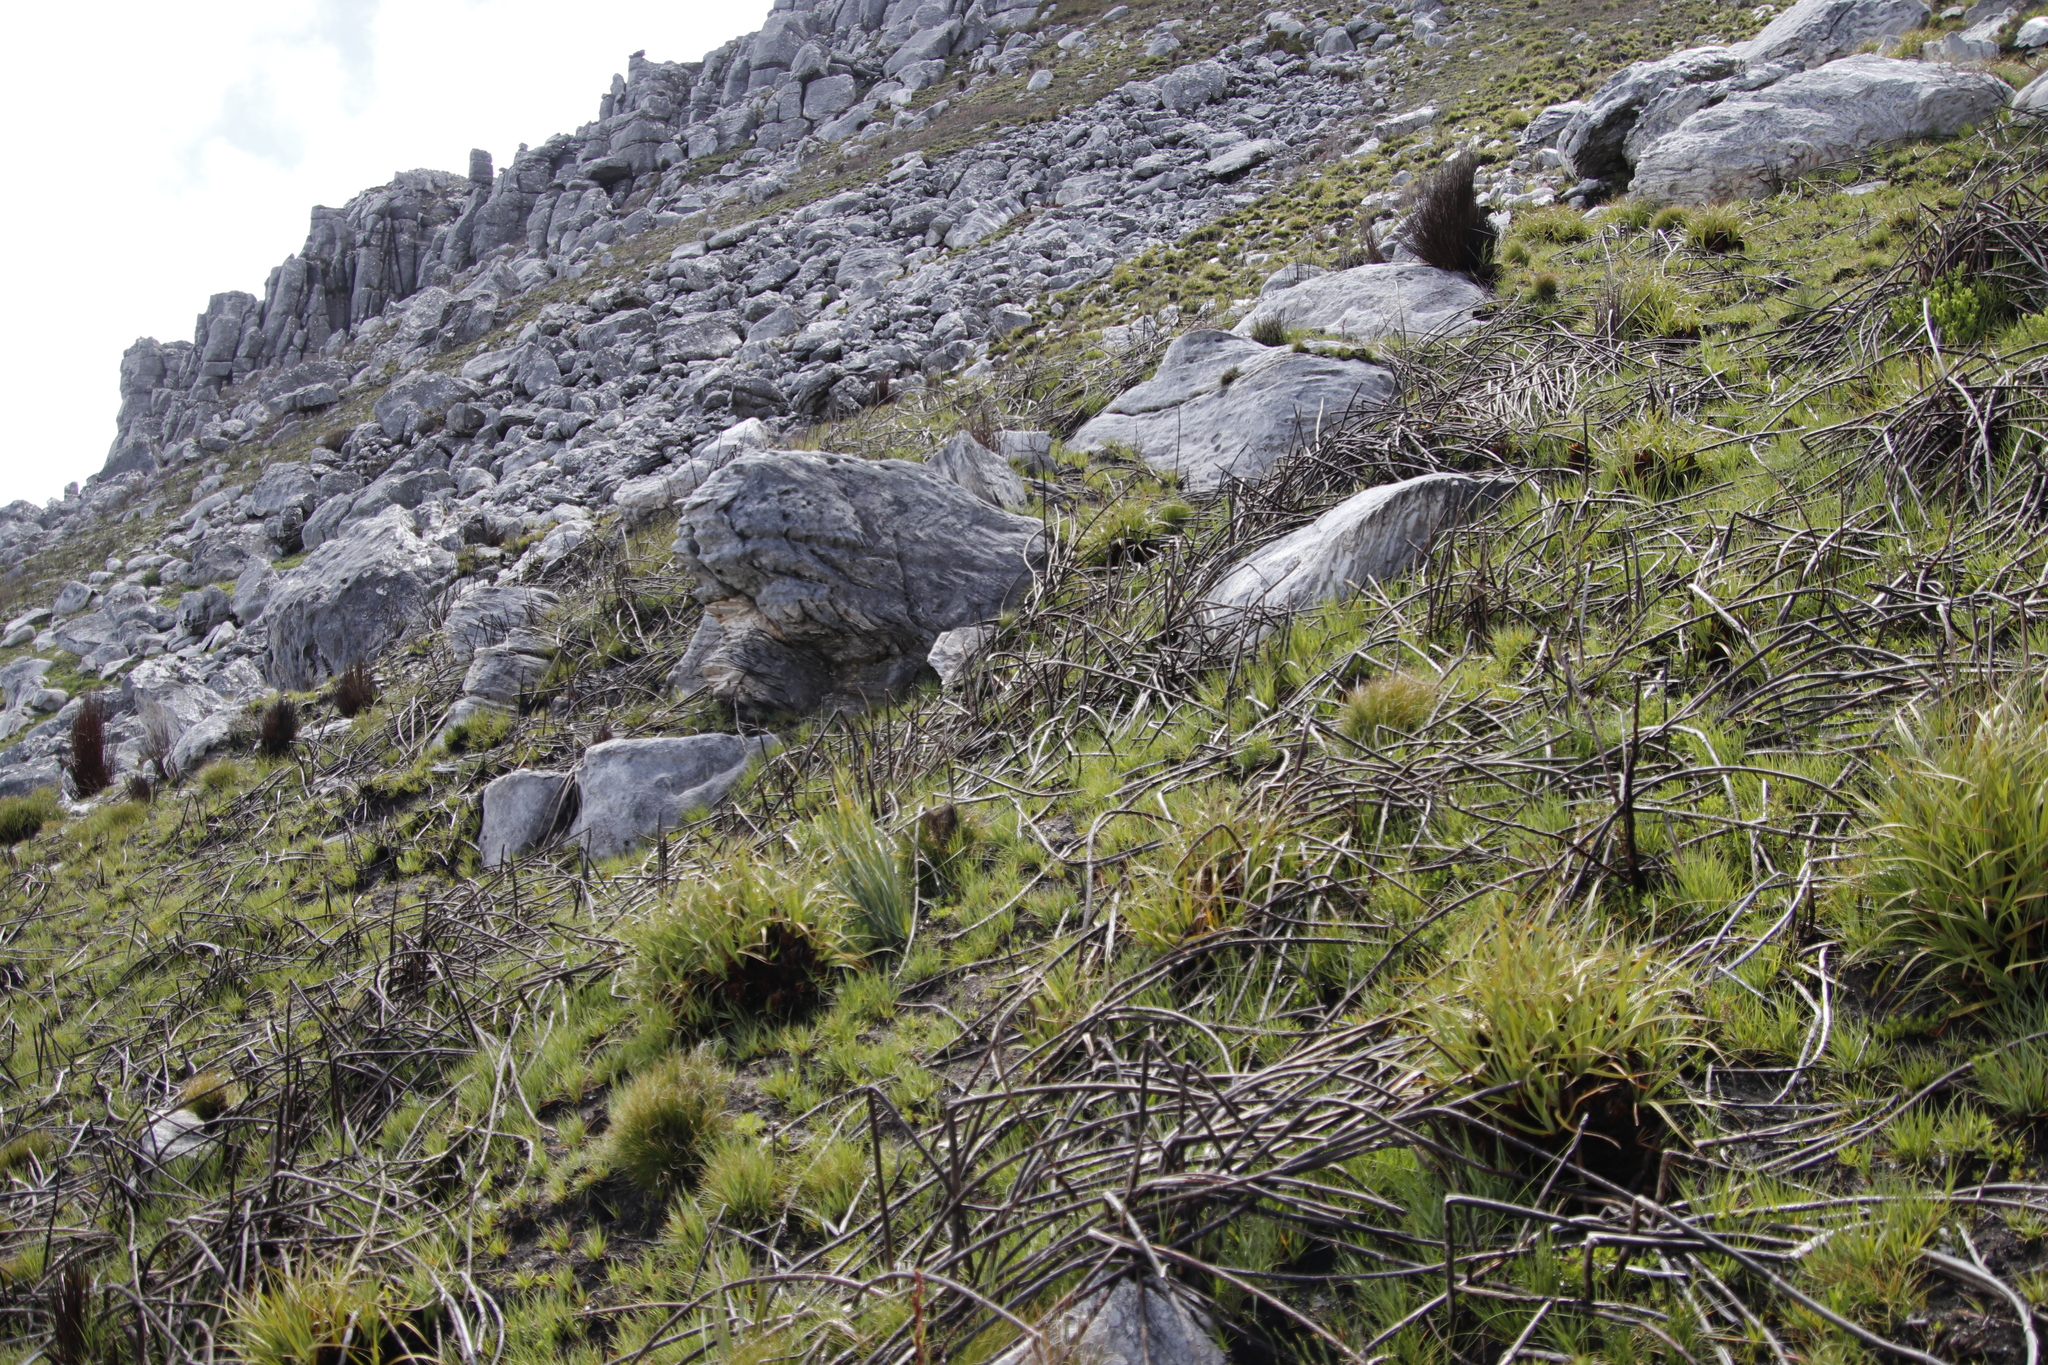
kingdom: Plantae
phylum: Tracheophyta
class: Liliopsida
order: Poales
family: Restionaceae
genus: Elegia
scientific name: Elegia mucronata
